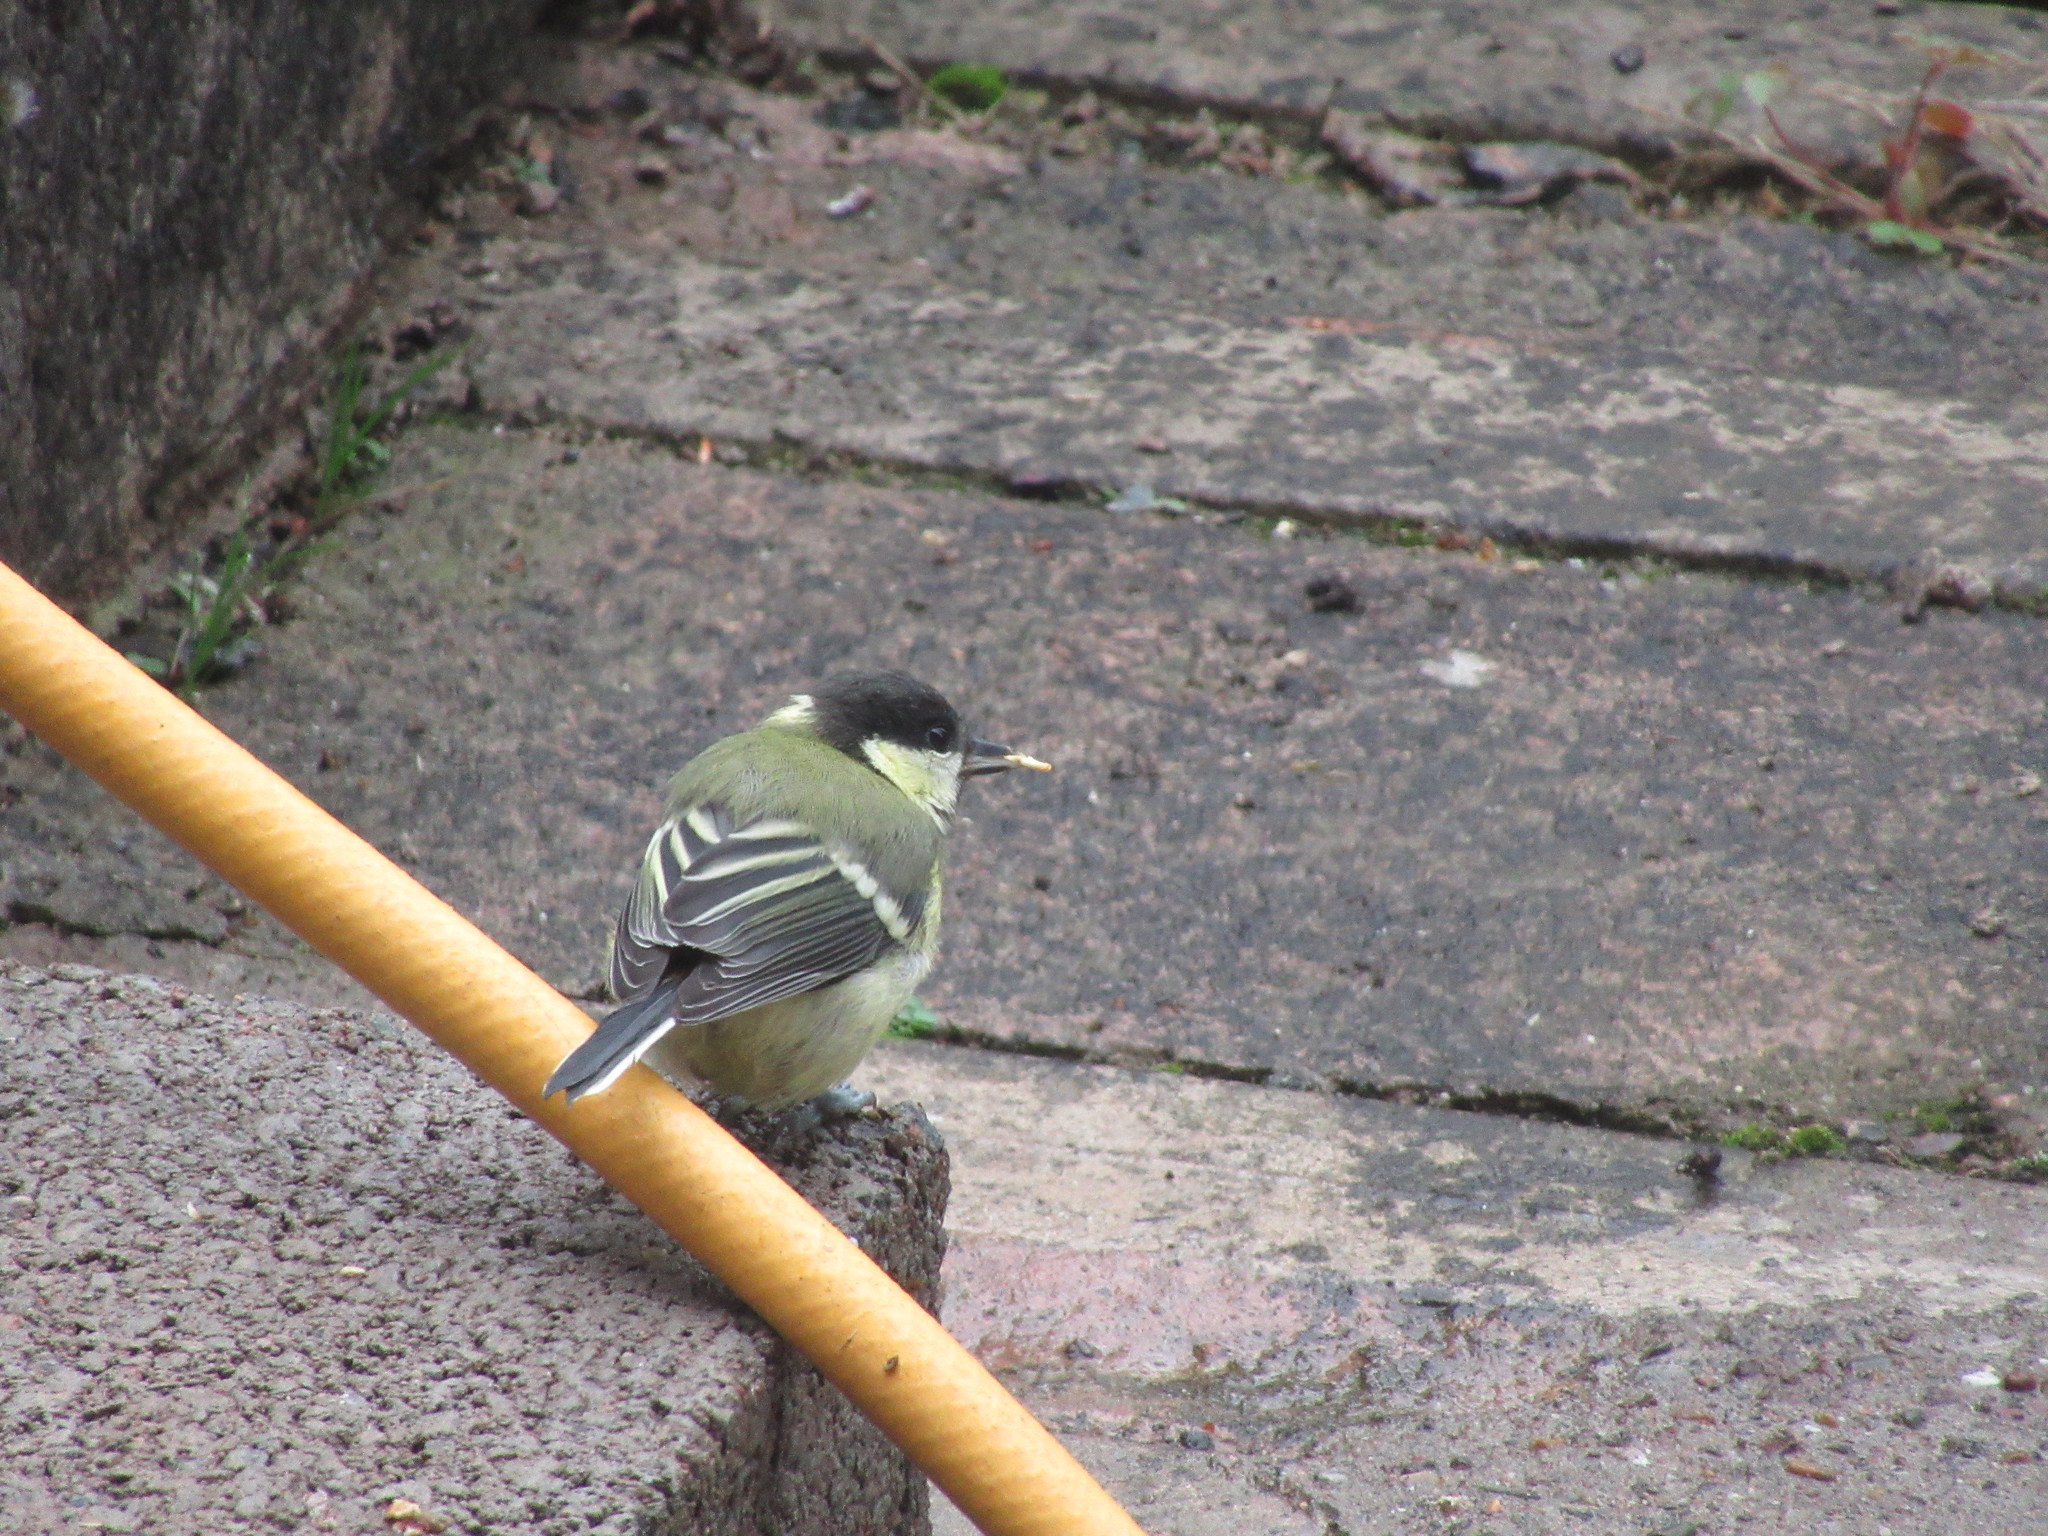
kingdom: Animalia
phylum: Chordata
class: Aves
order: Passeriformes
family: Paridae
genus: Parus
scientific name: Parus major
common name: Great tit
